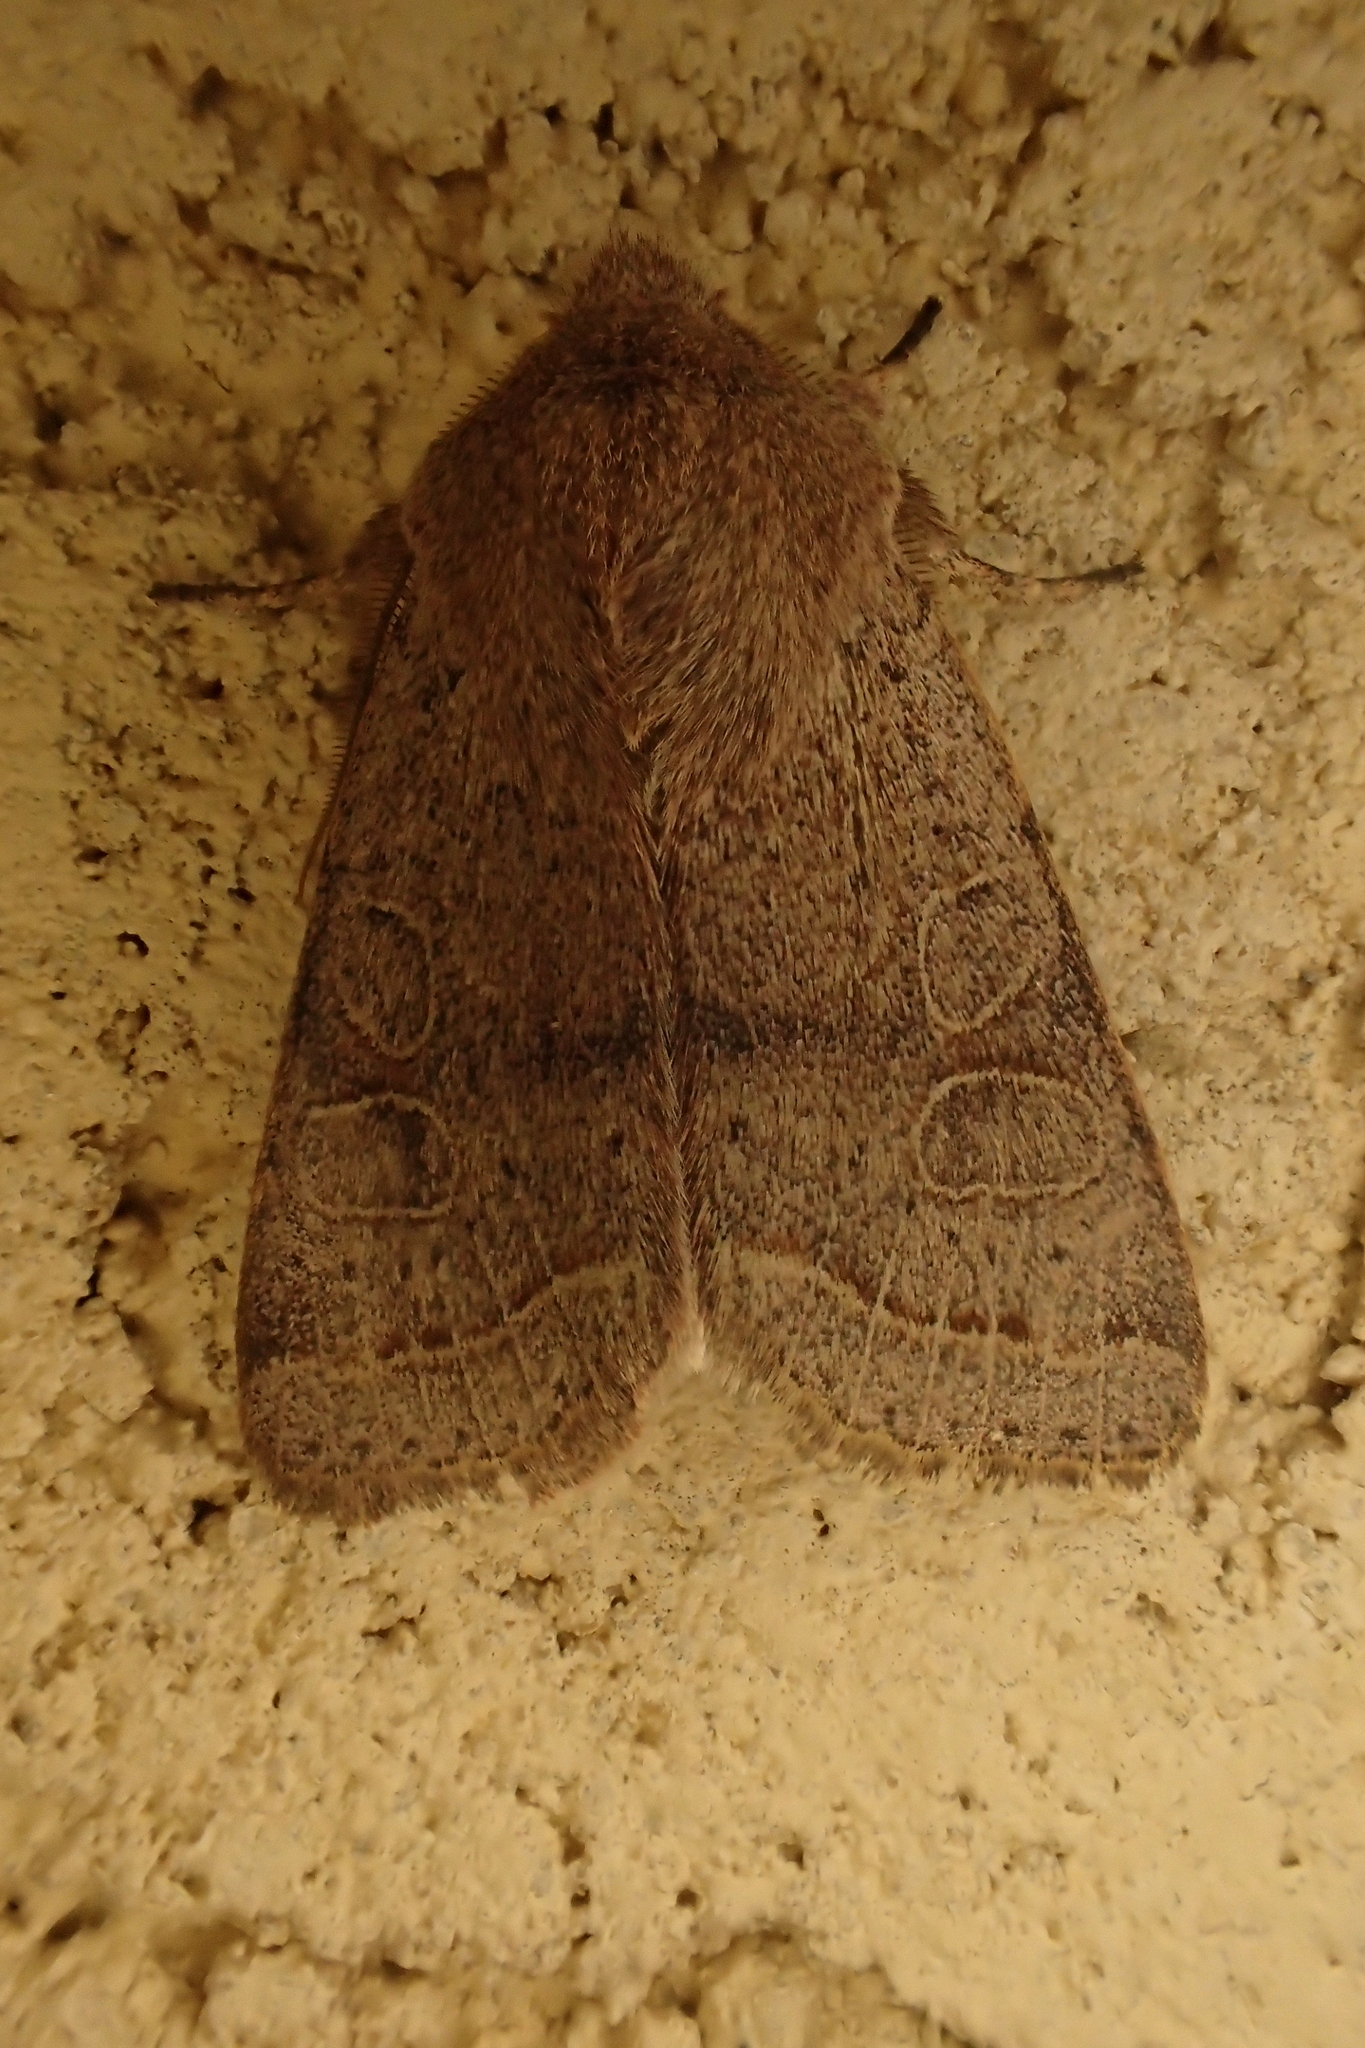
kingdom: Animalia
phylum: Arthropoda
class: Insecta
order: Lepidoptera
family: Noctuidae
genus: Orthosia
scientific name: Orthosia cerasi
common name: Common quaker
